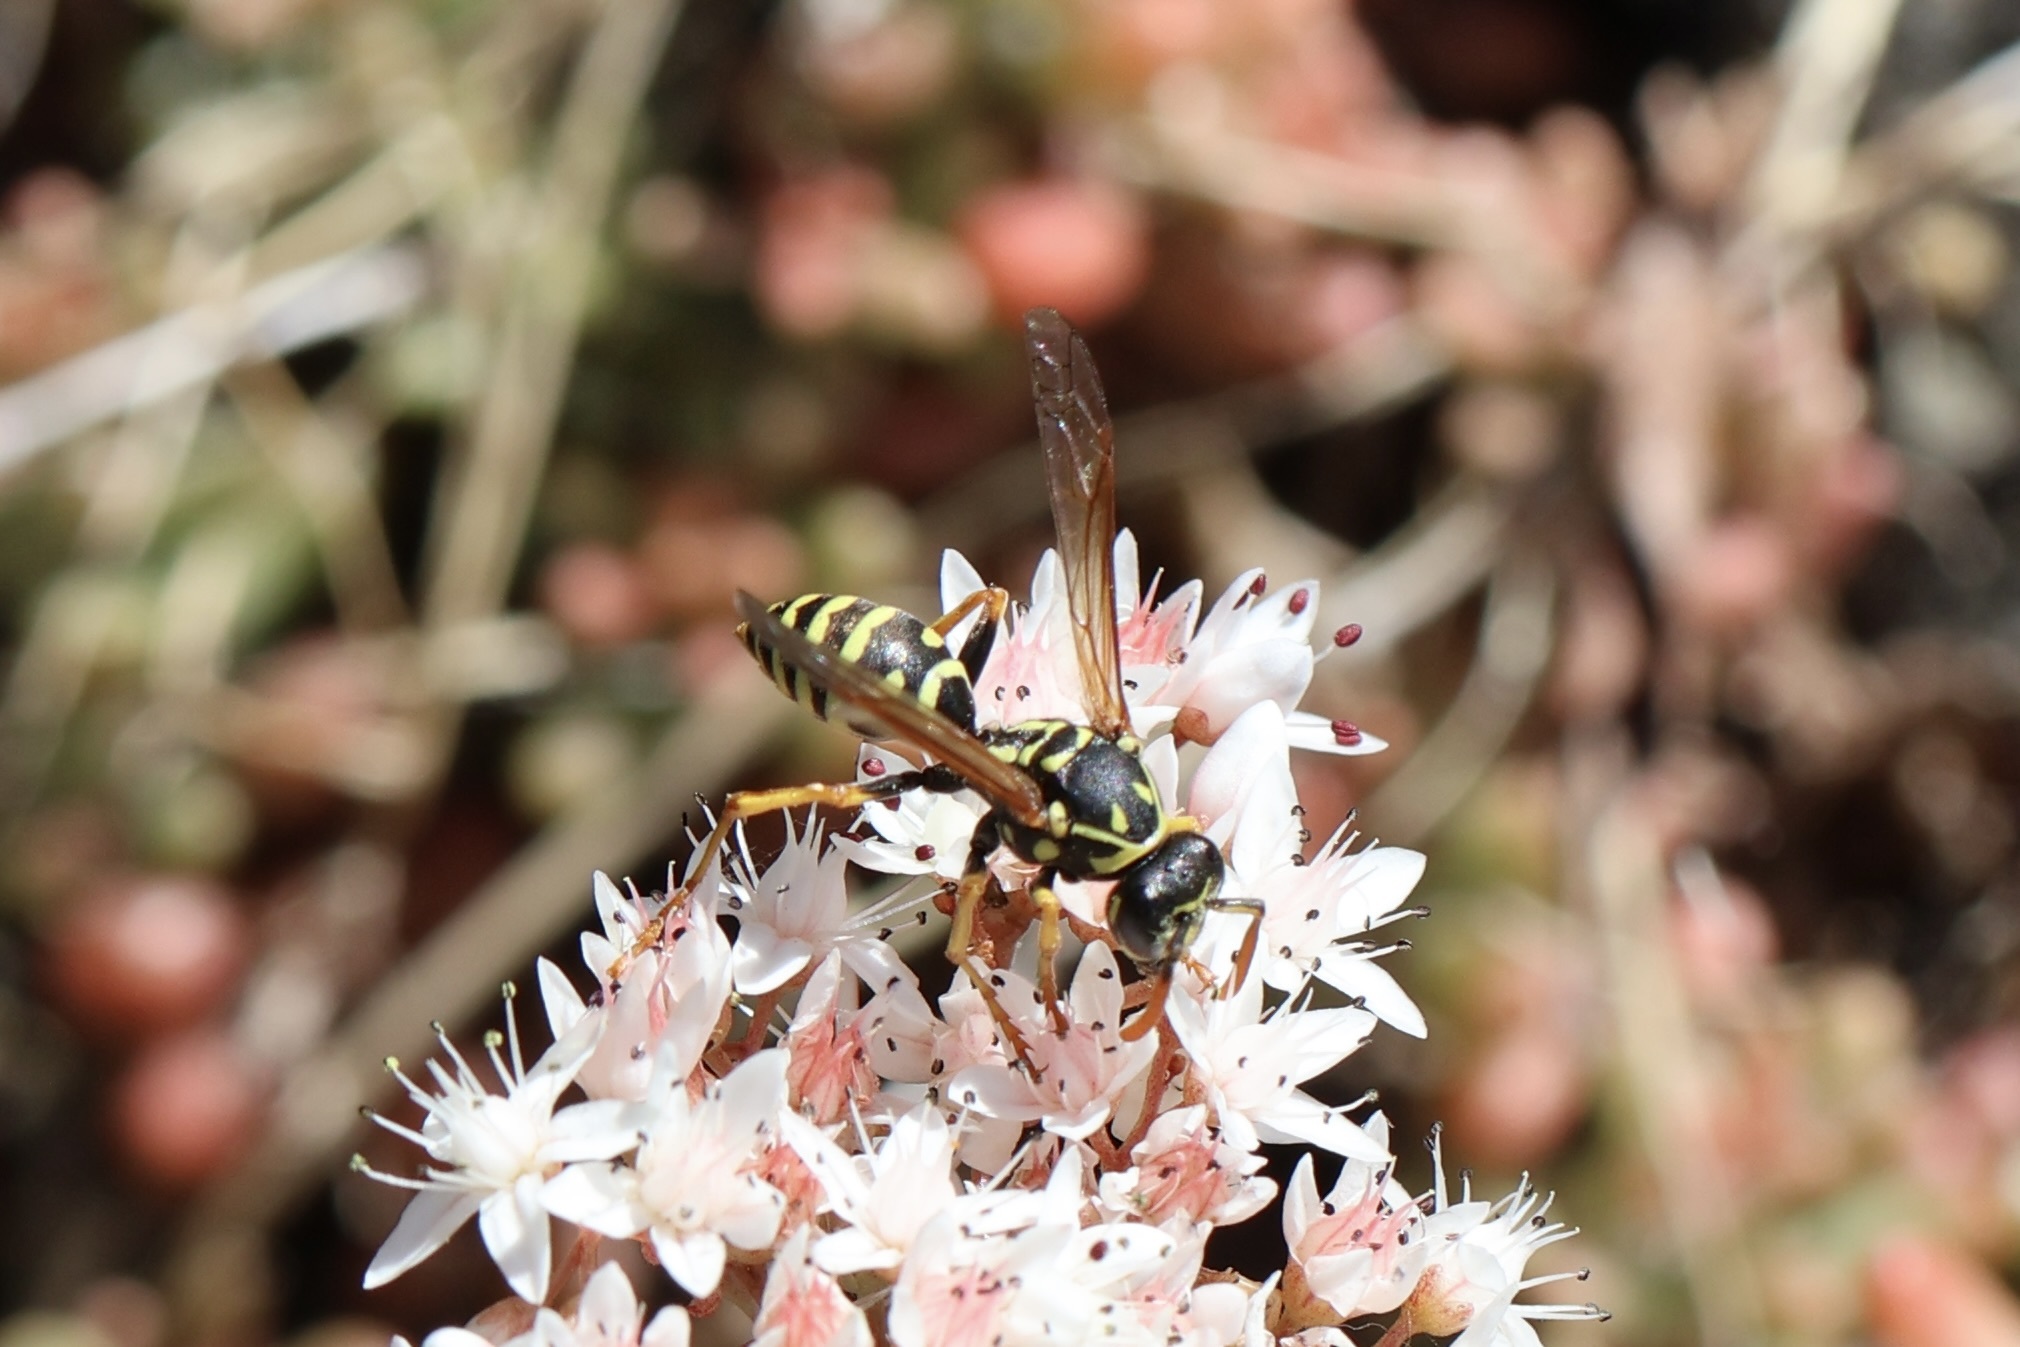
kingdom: Animalia
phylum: Arthropoda
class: Insecta
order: Hymenoptera
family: Eumenidae
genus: Polistes
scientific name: Polistes dominula
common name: Paper wasp
